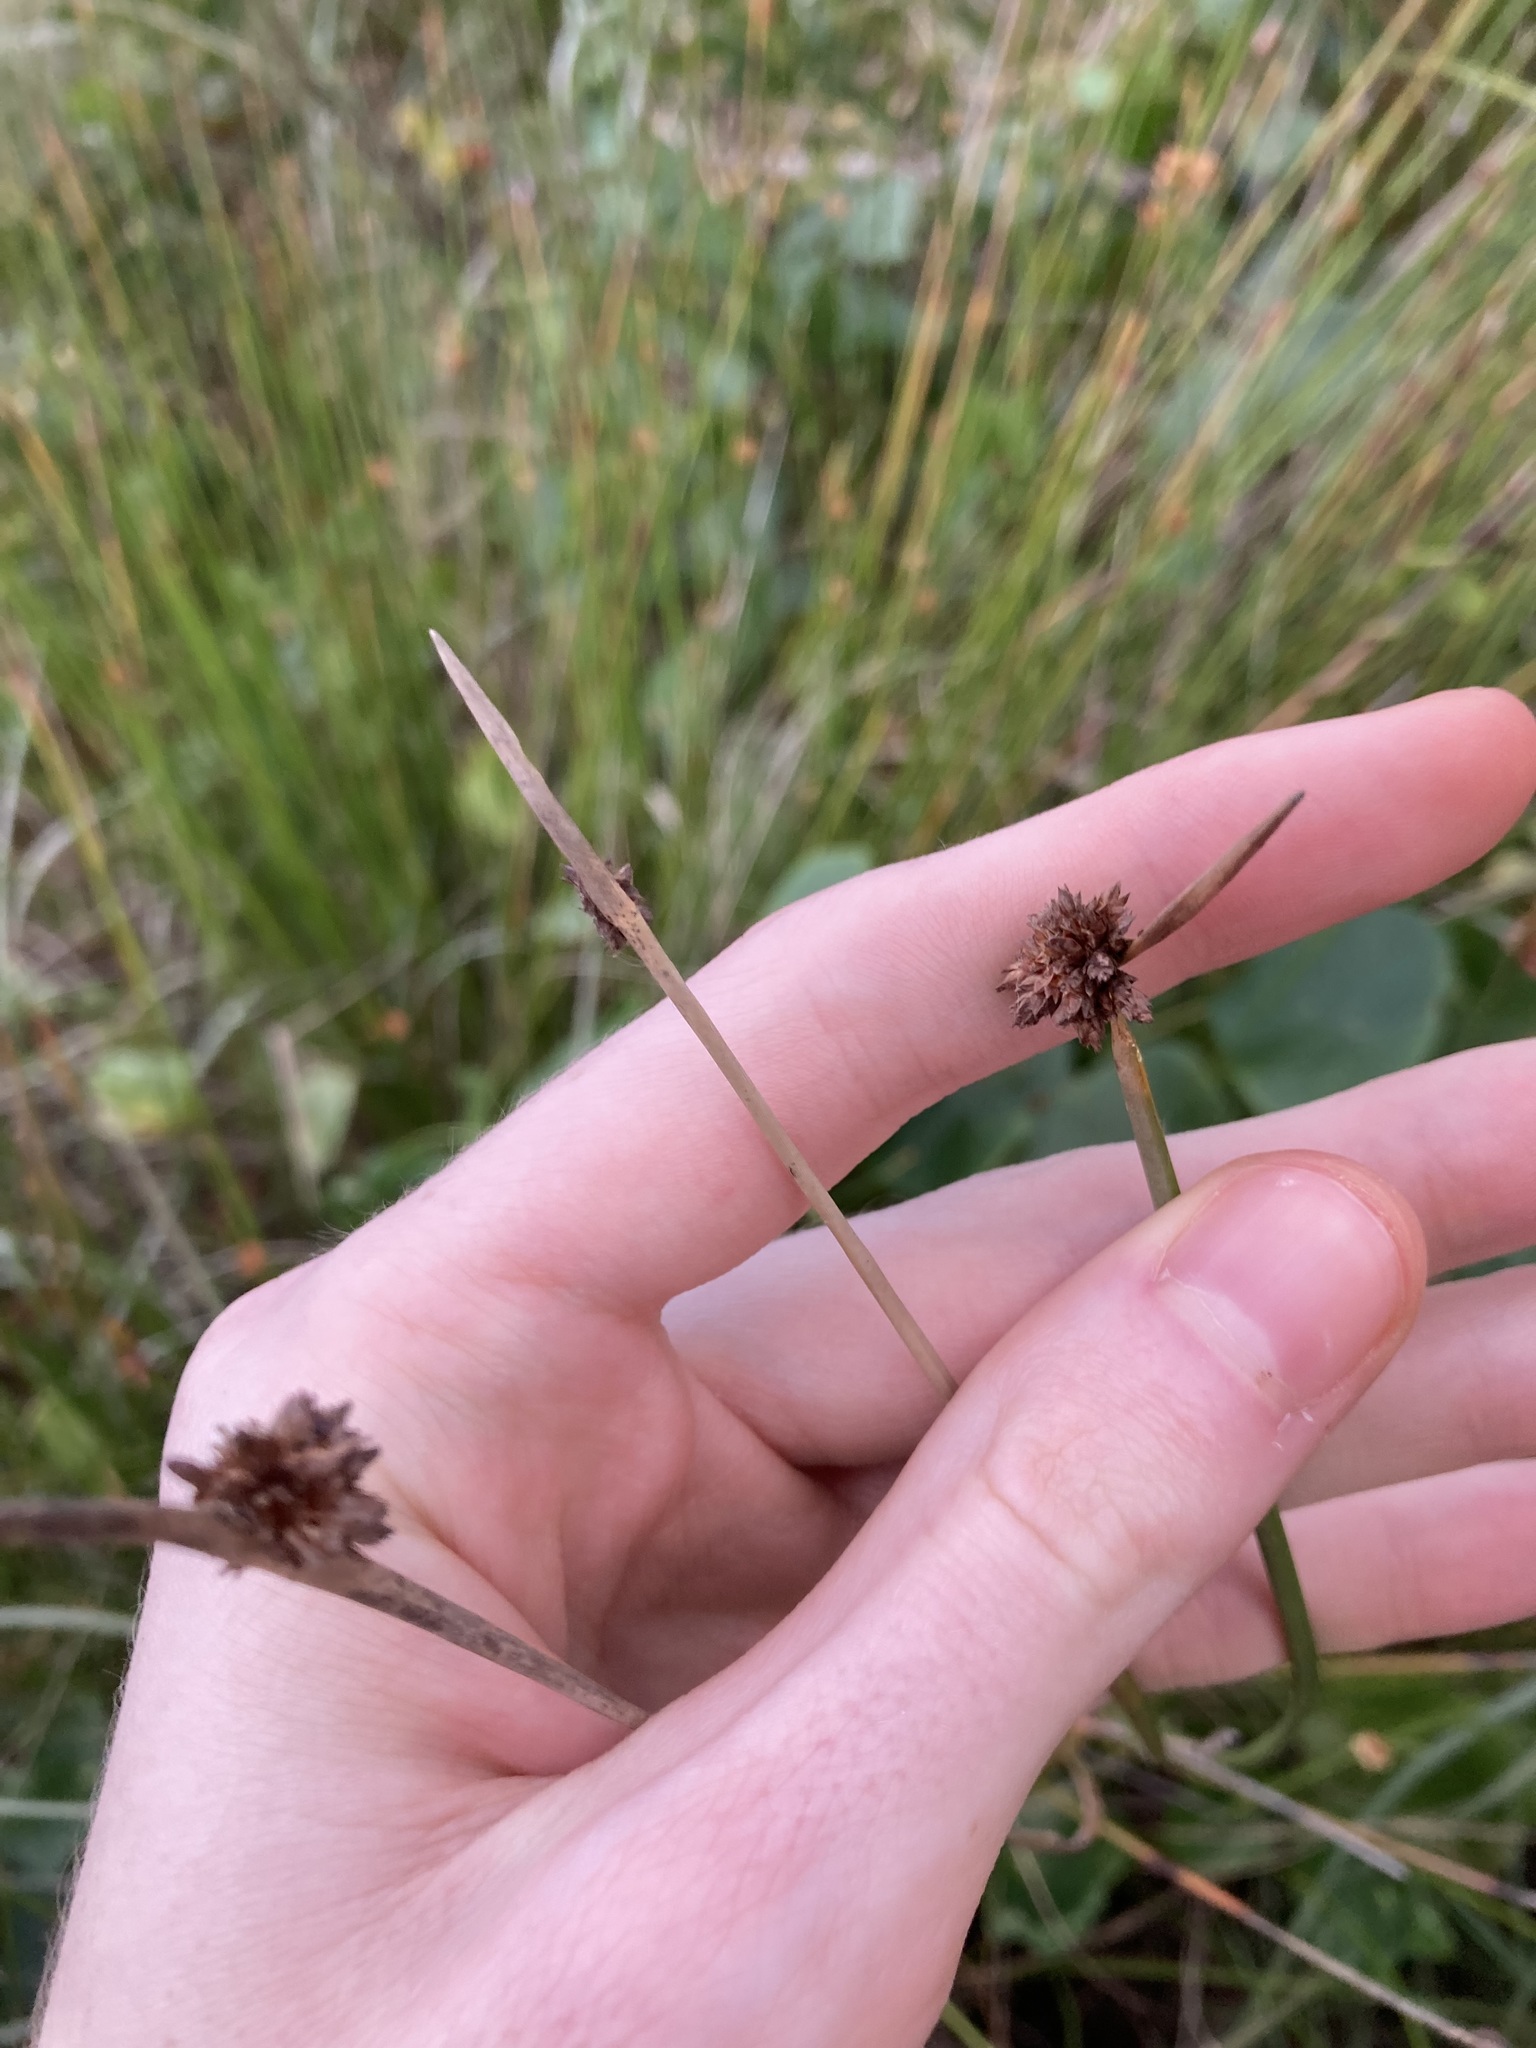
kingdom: Plantae
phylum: Tracheophyta
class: Liliopsida
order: Poales
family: Cyperaceae
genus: Ficinia
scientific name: Ficinia nodosa
